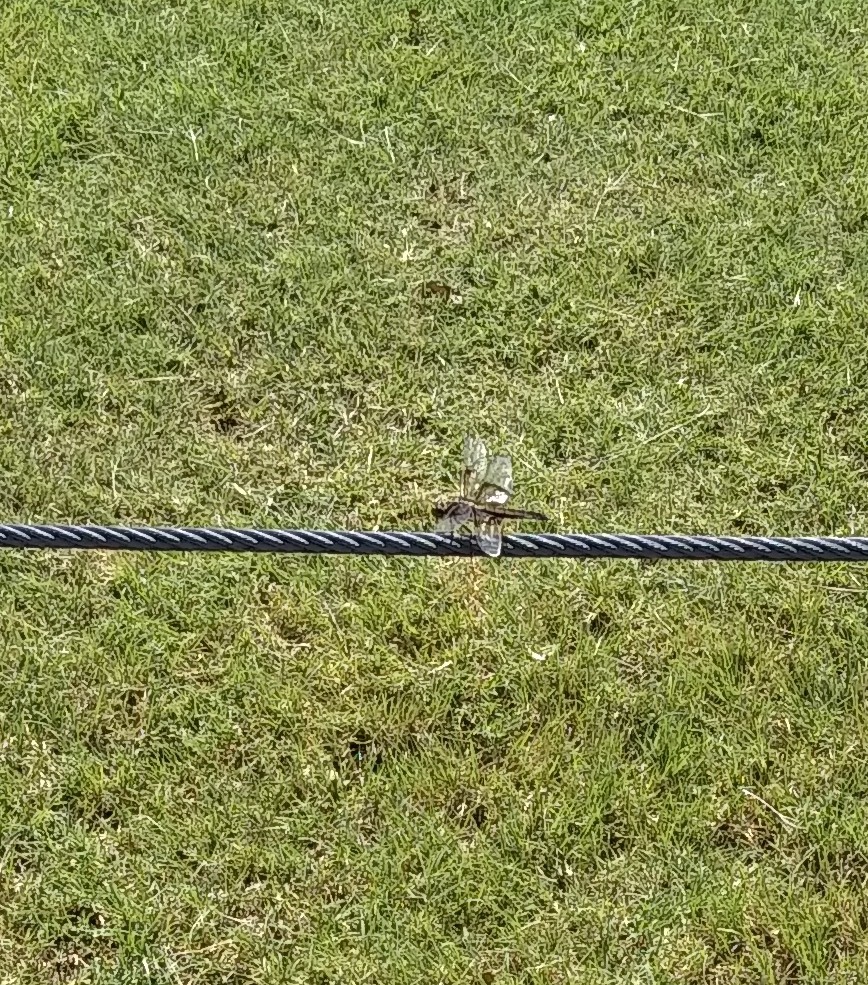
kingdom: Animalia
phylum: Arthropoda
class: Insecta
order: Odonata
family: Libellulidae
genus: Libellula
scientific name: Libellula luctuosa
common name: Widow skimmer
